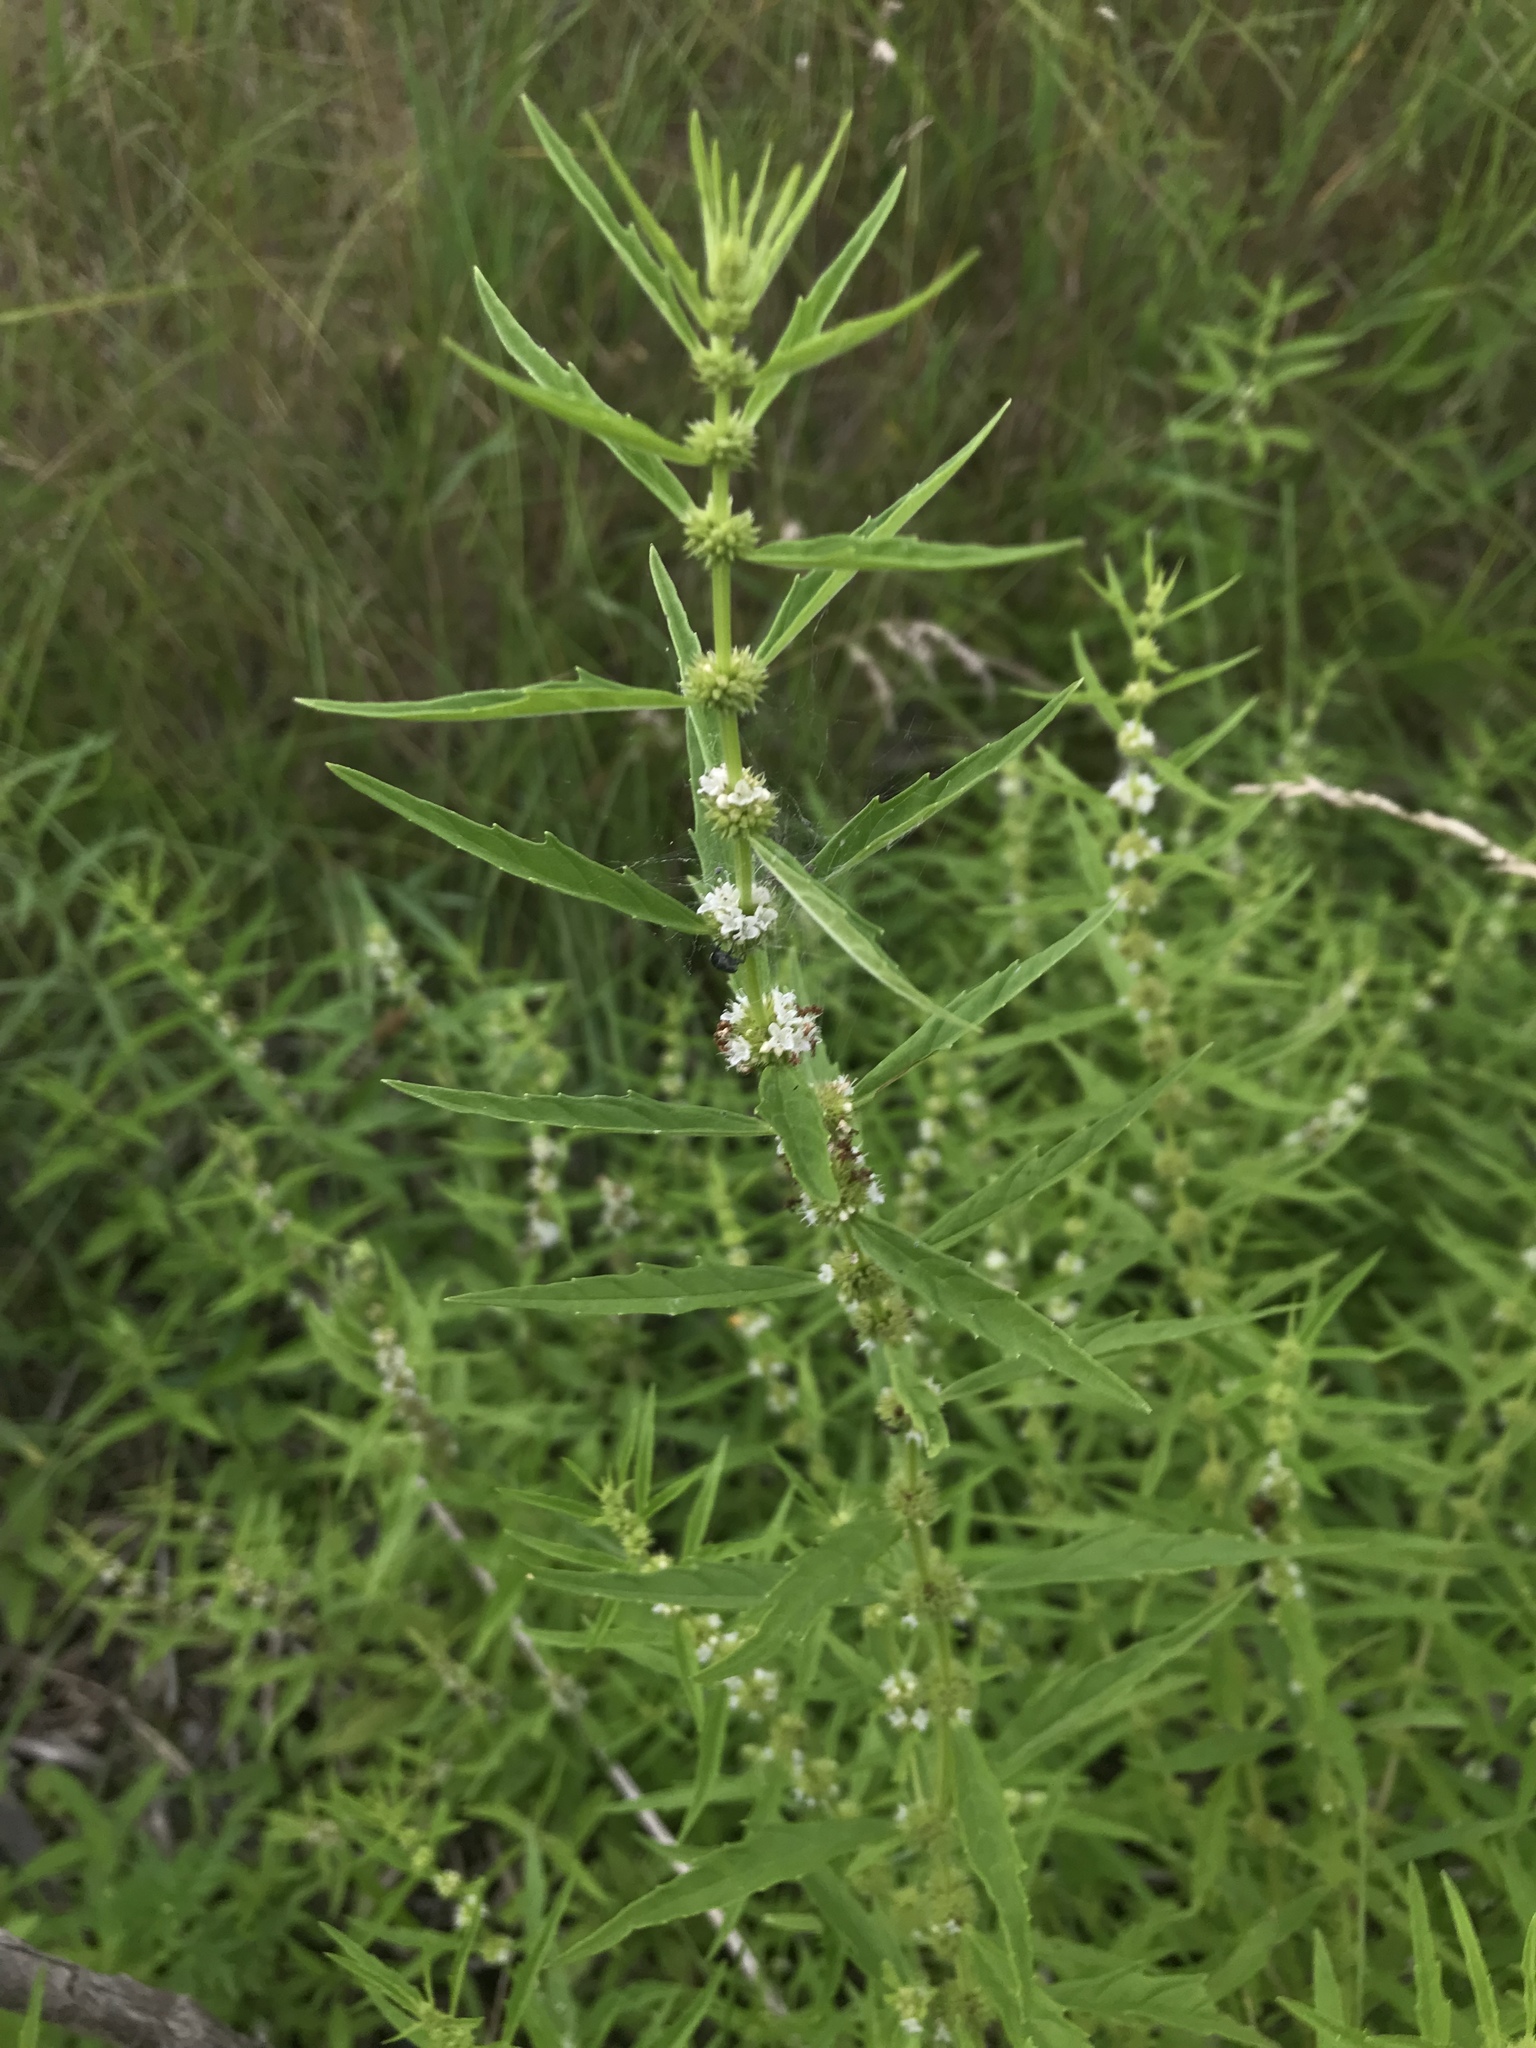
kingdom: Plantae
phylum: Tracheophyta
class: Magnoliopsida
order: Lamiales
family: Lamiaceae
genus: Lycopus
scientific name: Lycopus americanus
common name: American bugleweed
